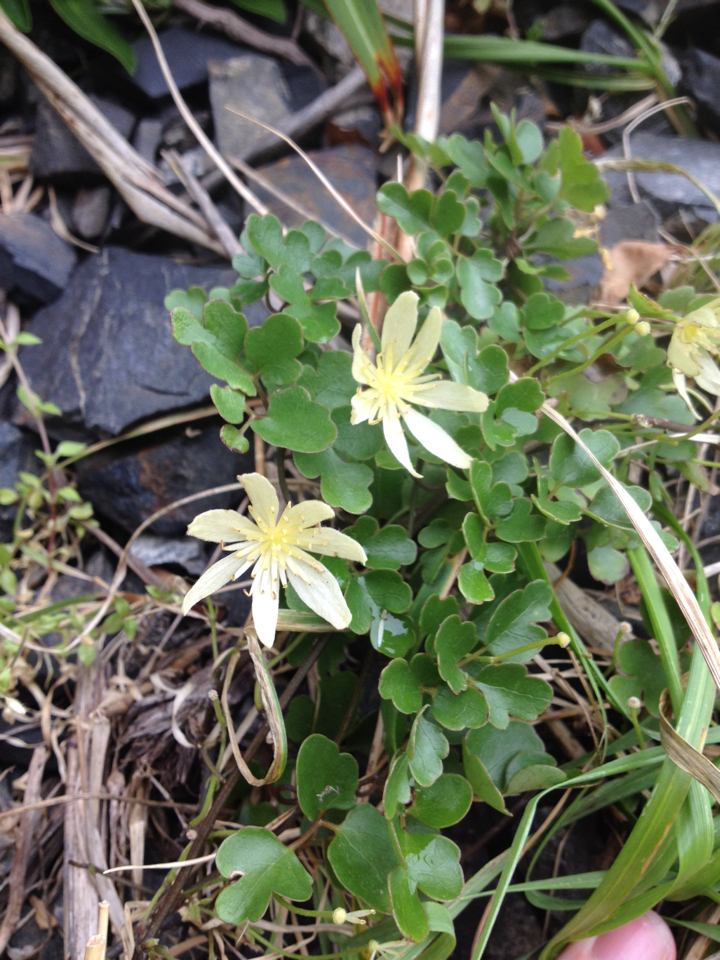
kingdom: Plantae
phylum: Tracheophyta
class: Magnoliopsida
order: Ranunculales
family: Ranunculaceae
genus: Clematis
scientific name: Clematis forsteri
